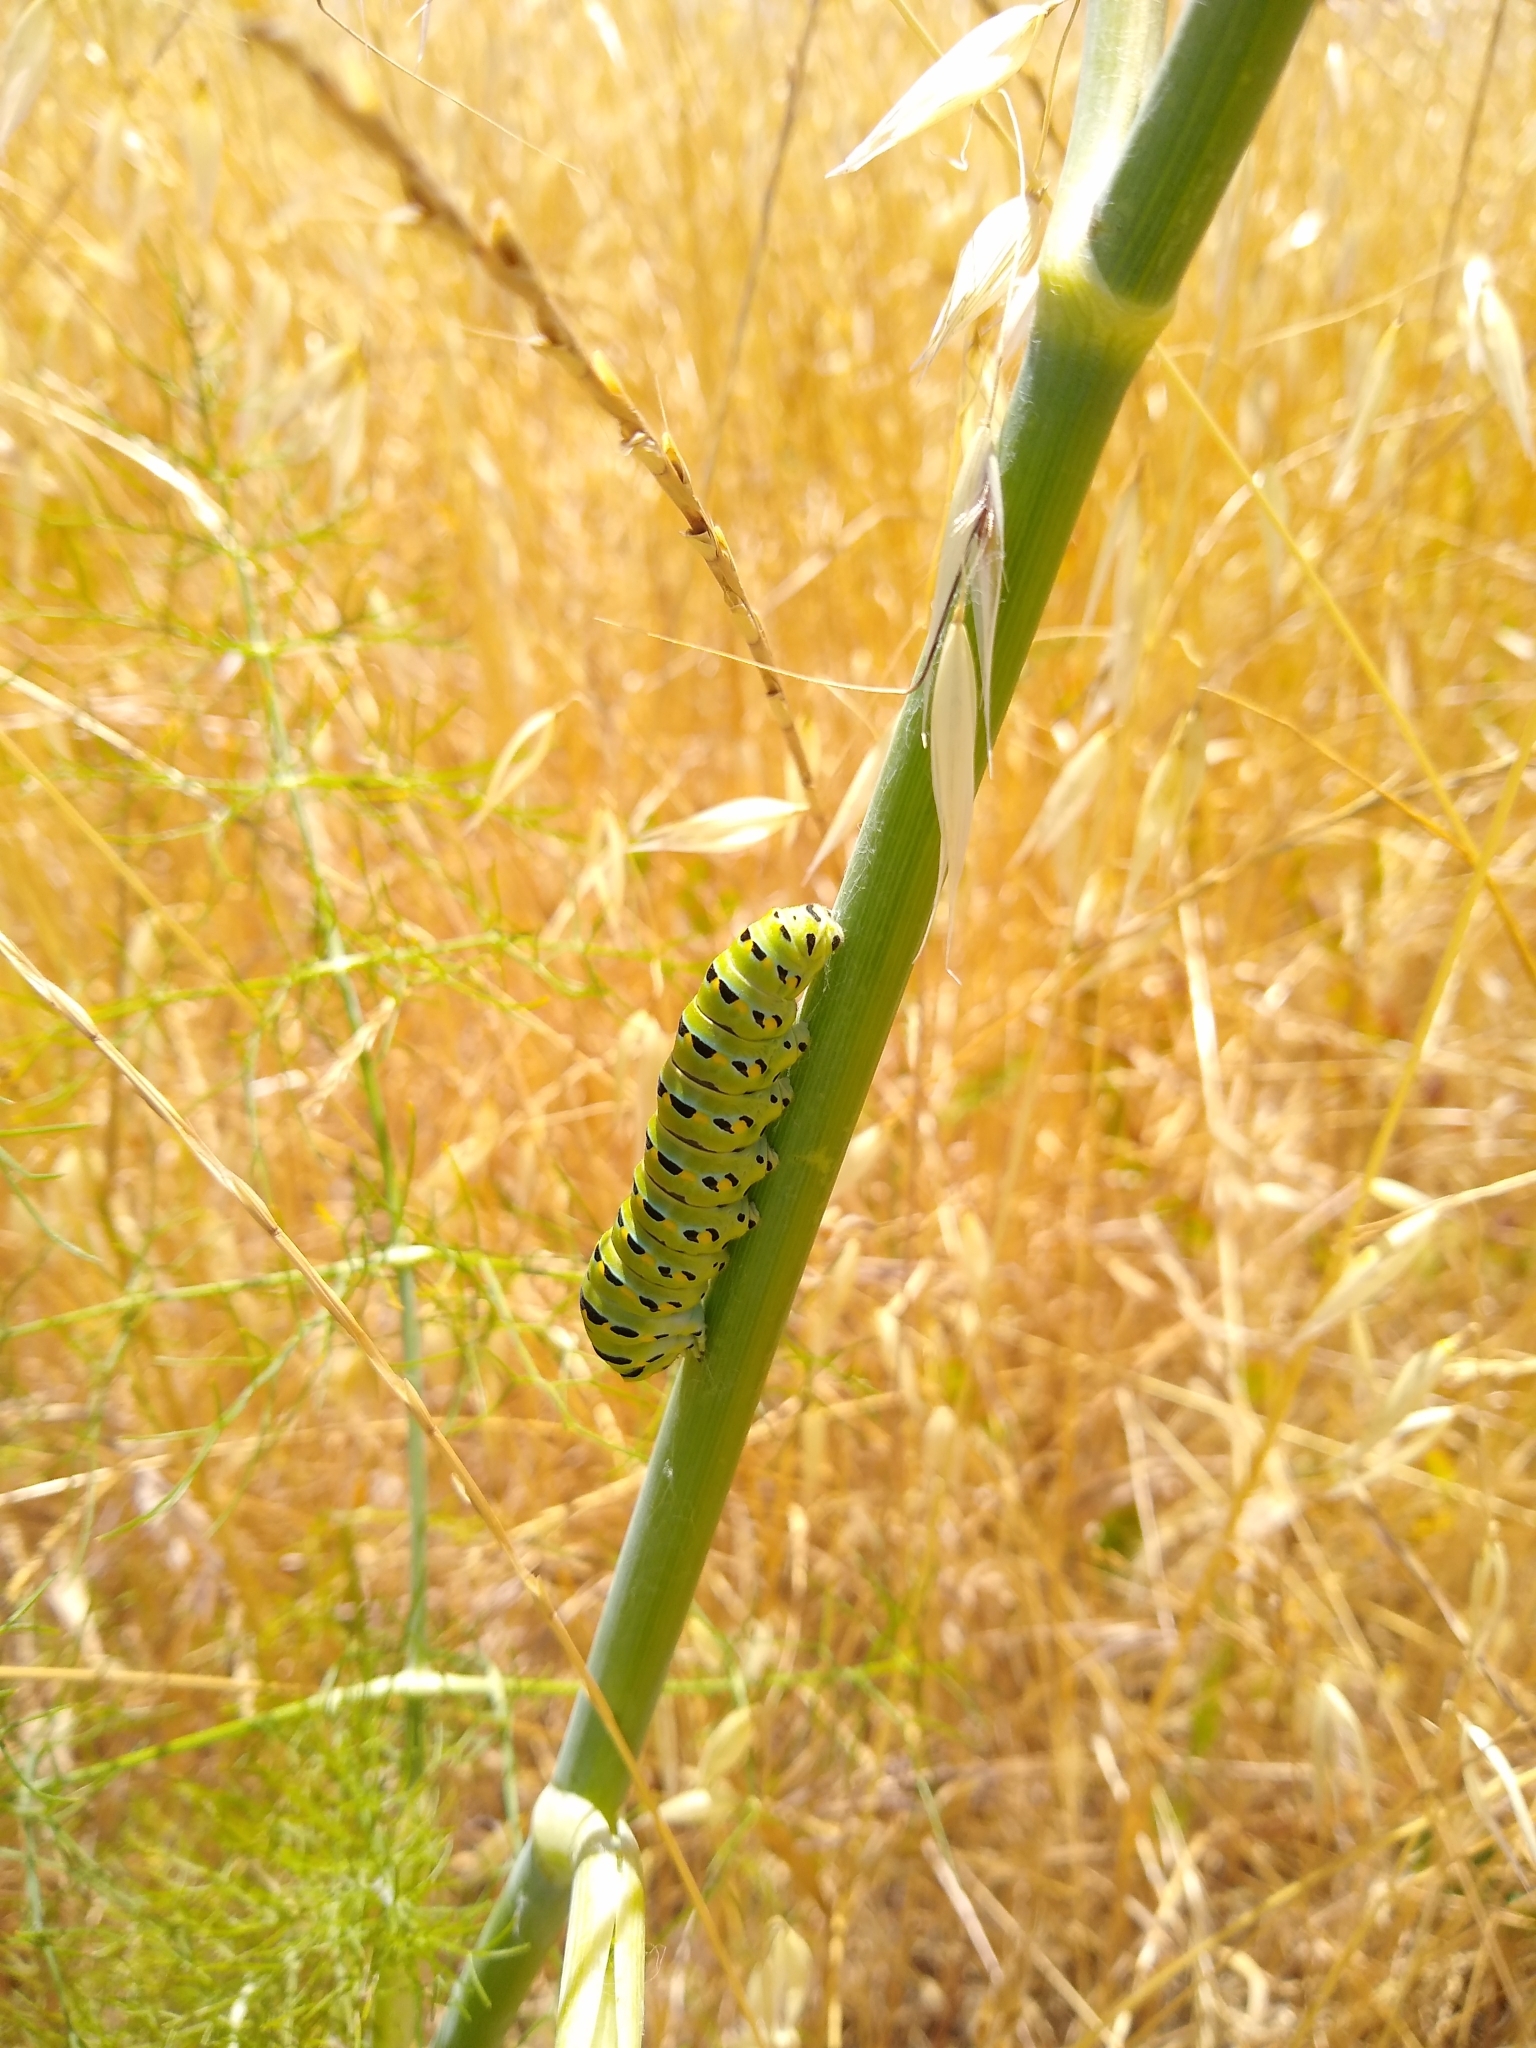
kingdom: Animalia
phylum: Arthropoda
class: Insecta
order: Lepidoptera
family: Papilionidae
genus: Papilio
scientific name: Papilio zelicaon
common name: Anise swallowtail
